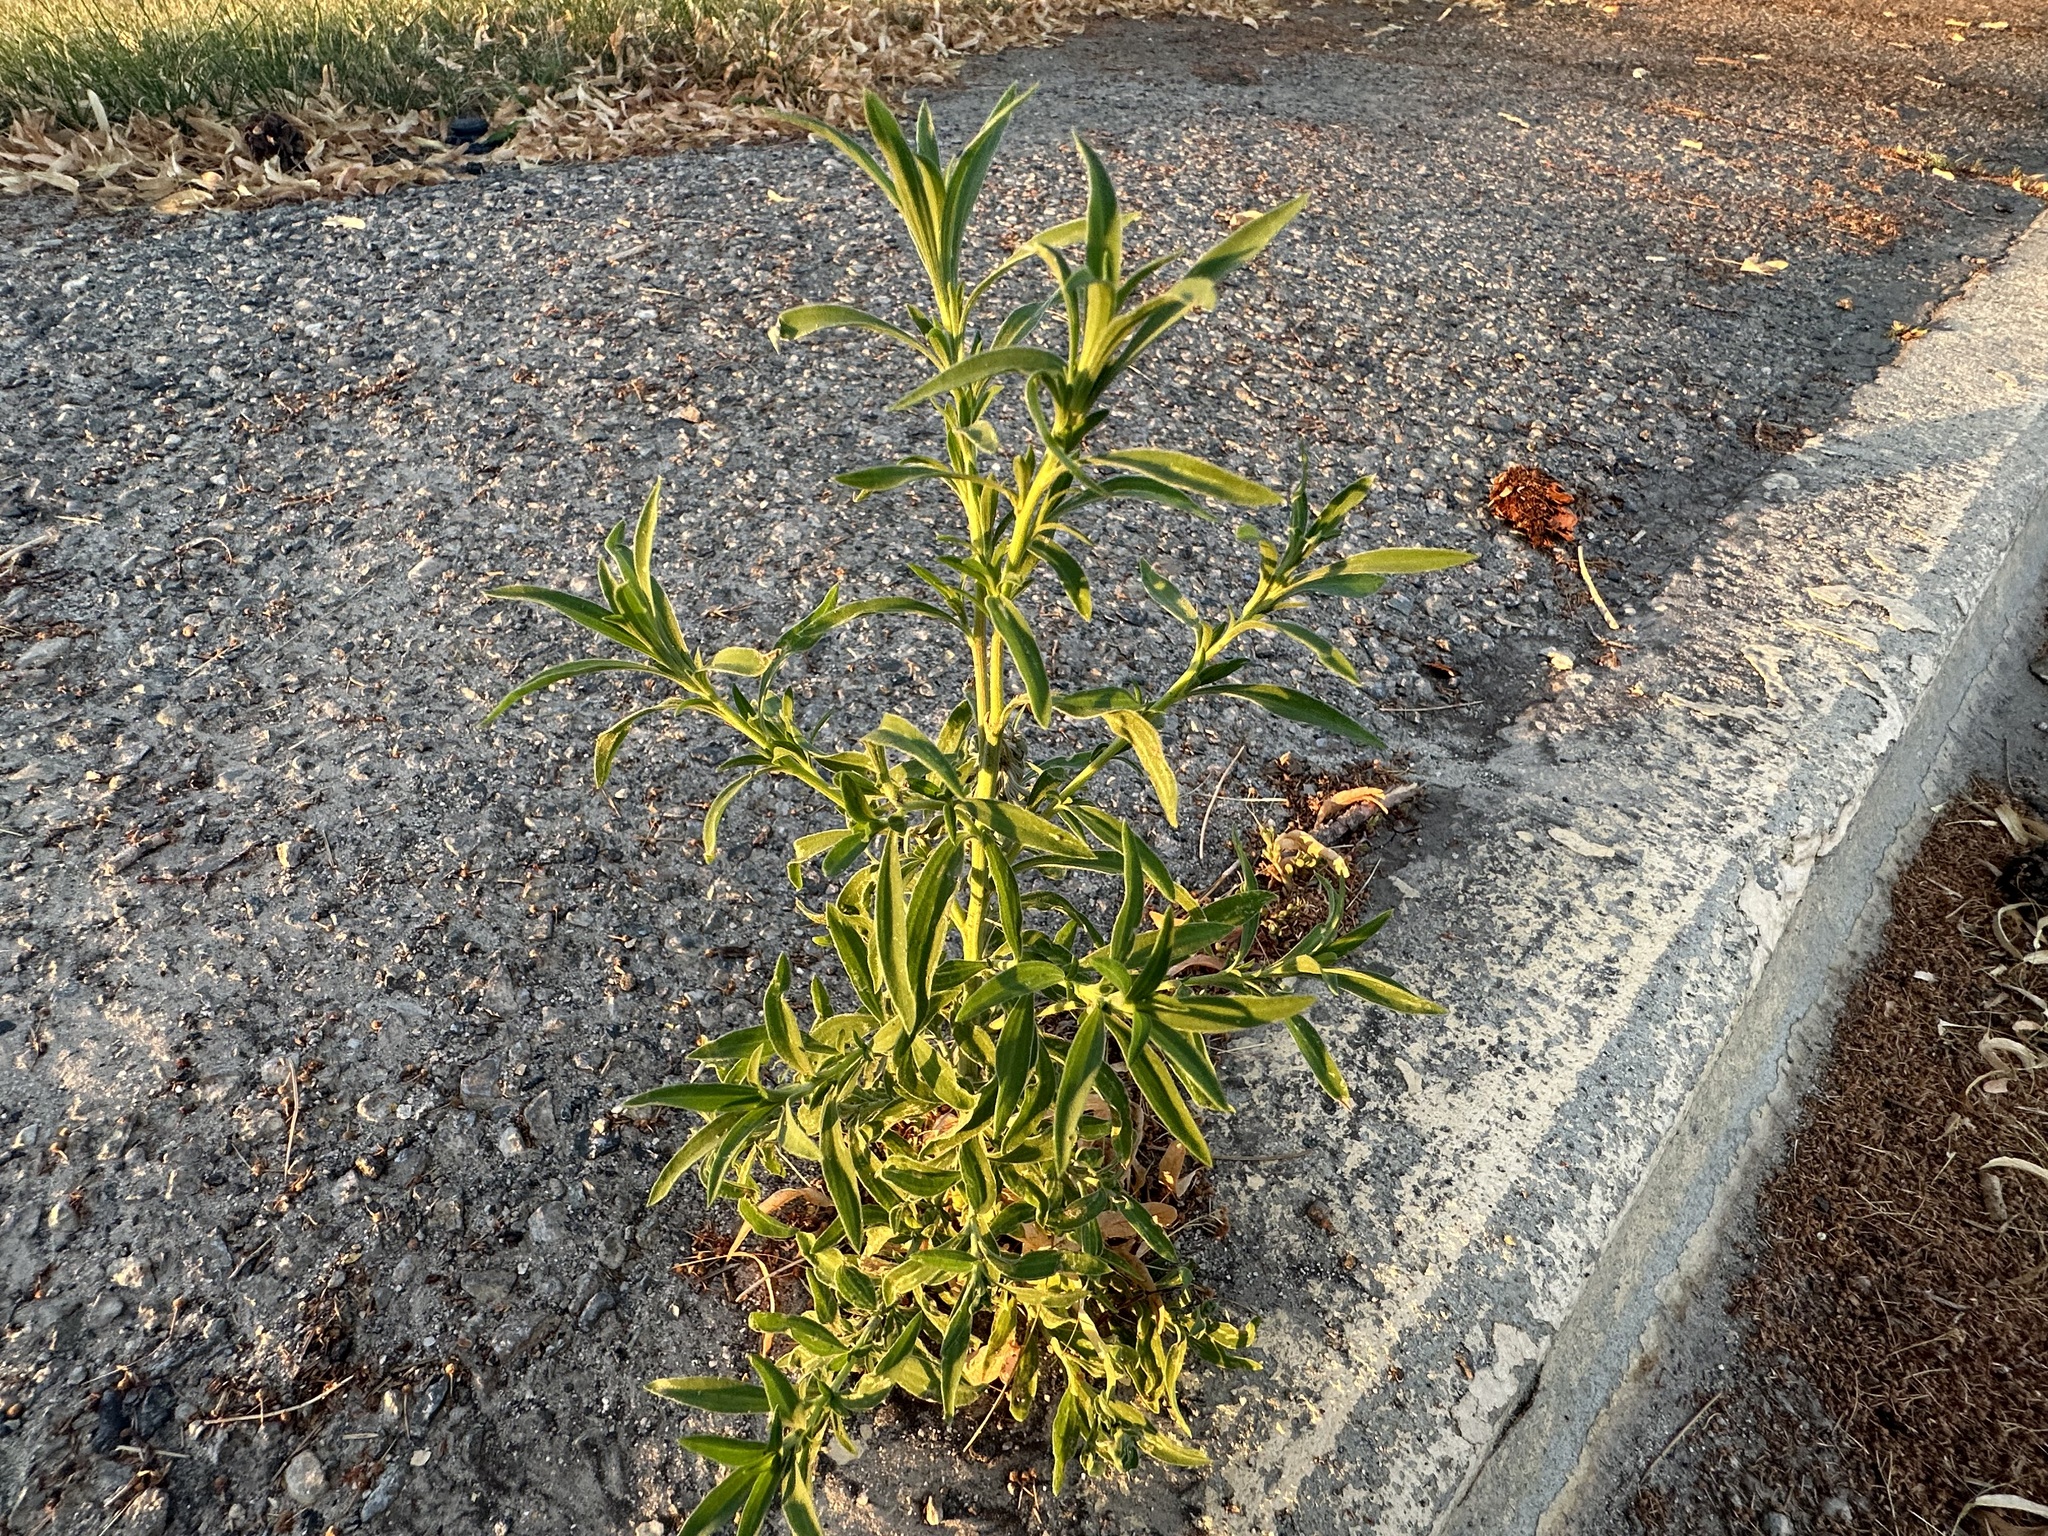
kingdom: Plantae
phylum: Tracheophyta
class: Magnoliopsida
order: Caryophyllales
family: Amaranthaceae
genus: Bassia
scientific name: Bassia scoparia
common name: Belvedere
